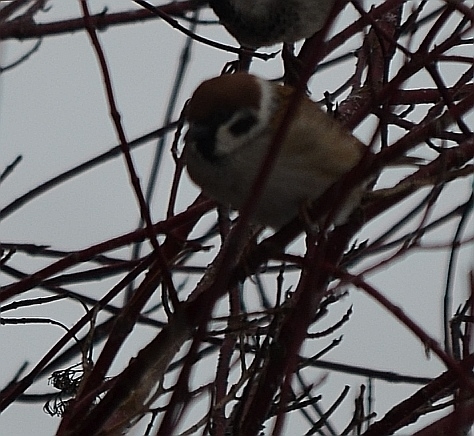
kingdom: Animalia
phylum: Chordata
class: Aves
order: Passeriformes
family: Passeridae
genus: Passer
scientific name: Passer montanus
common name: Eurasian tree sparrow
